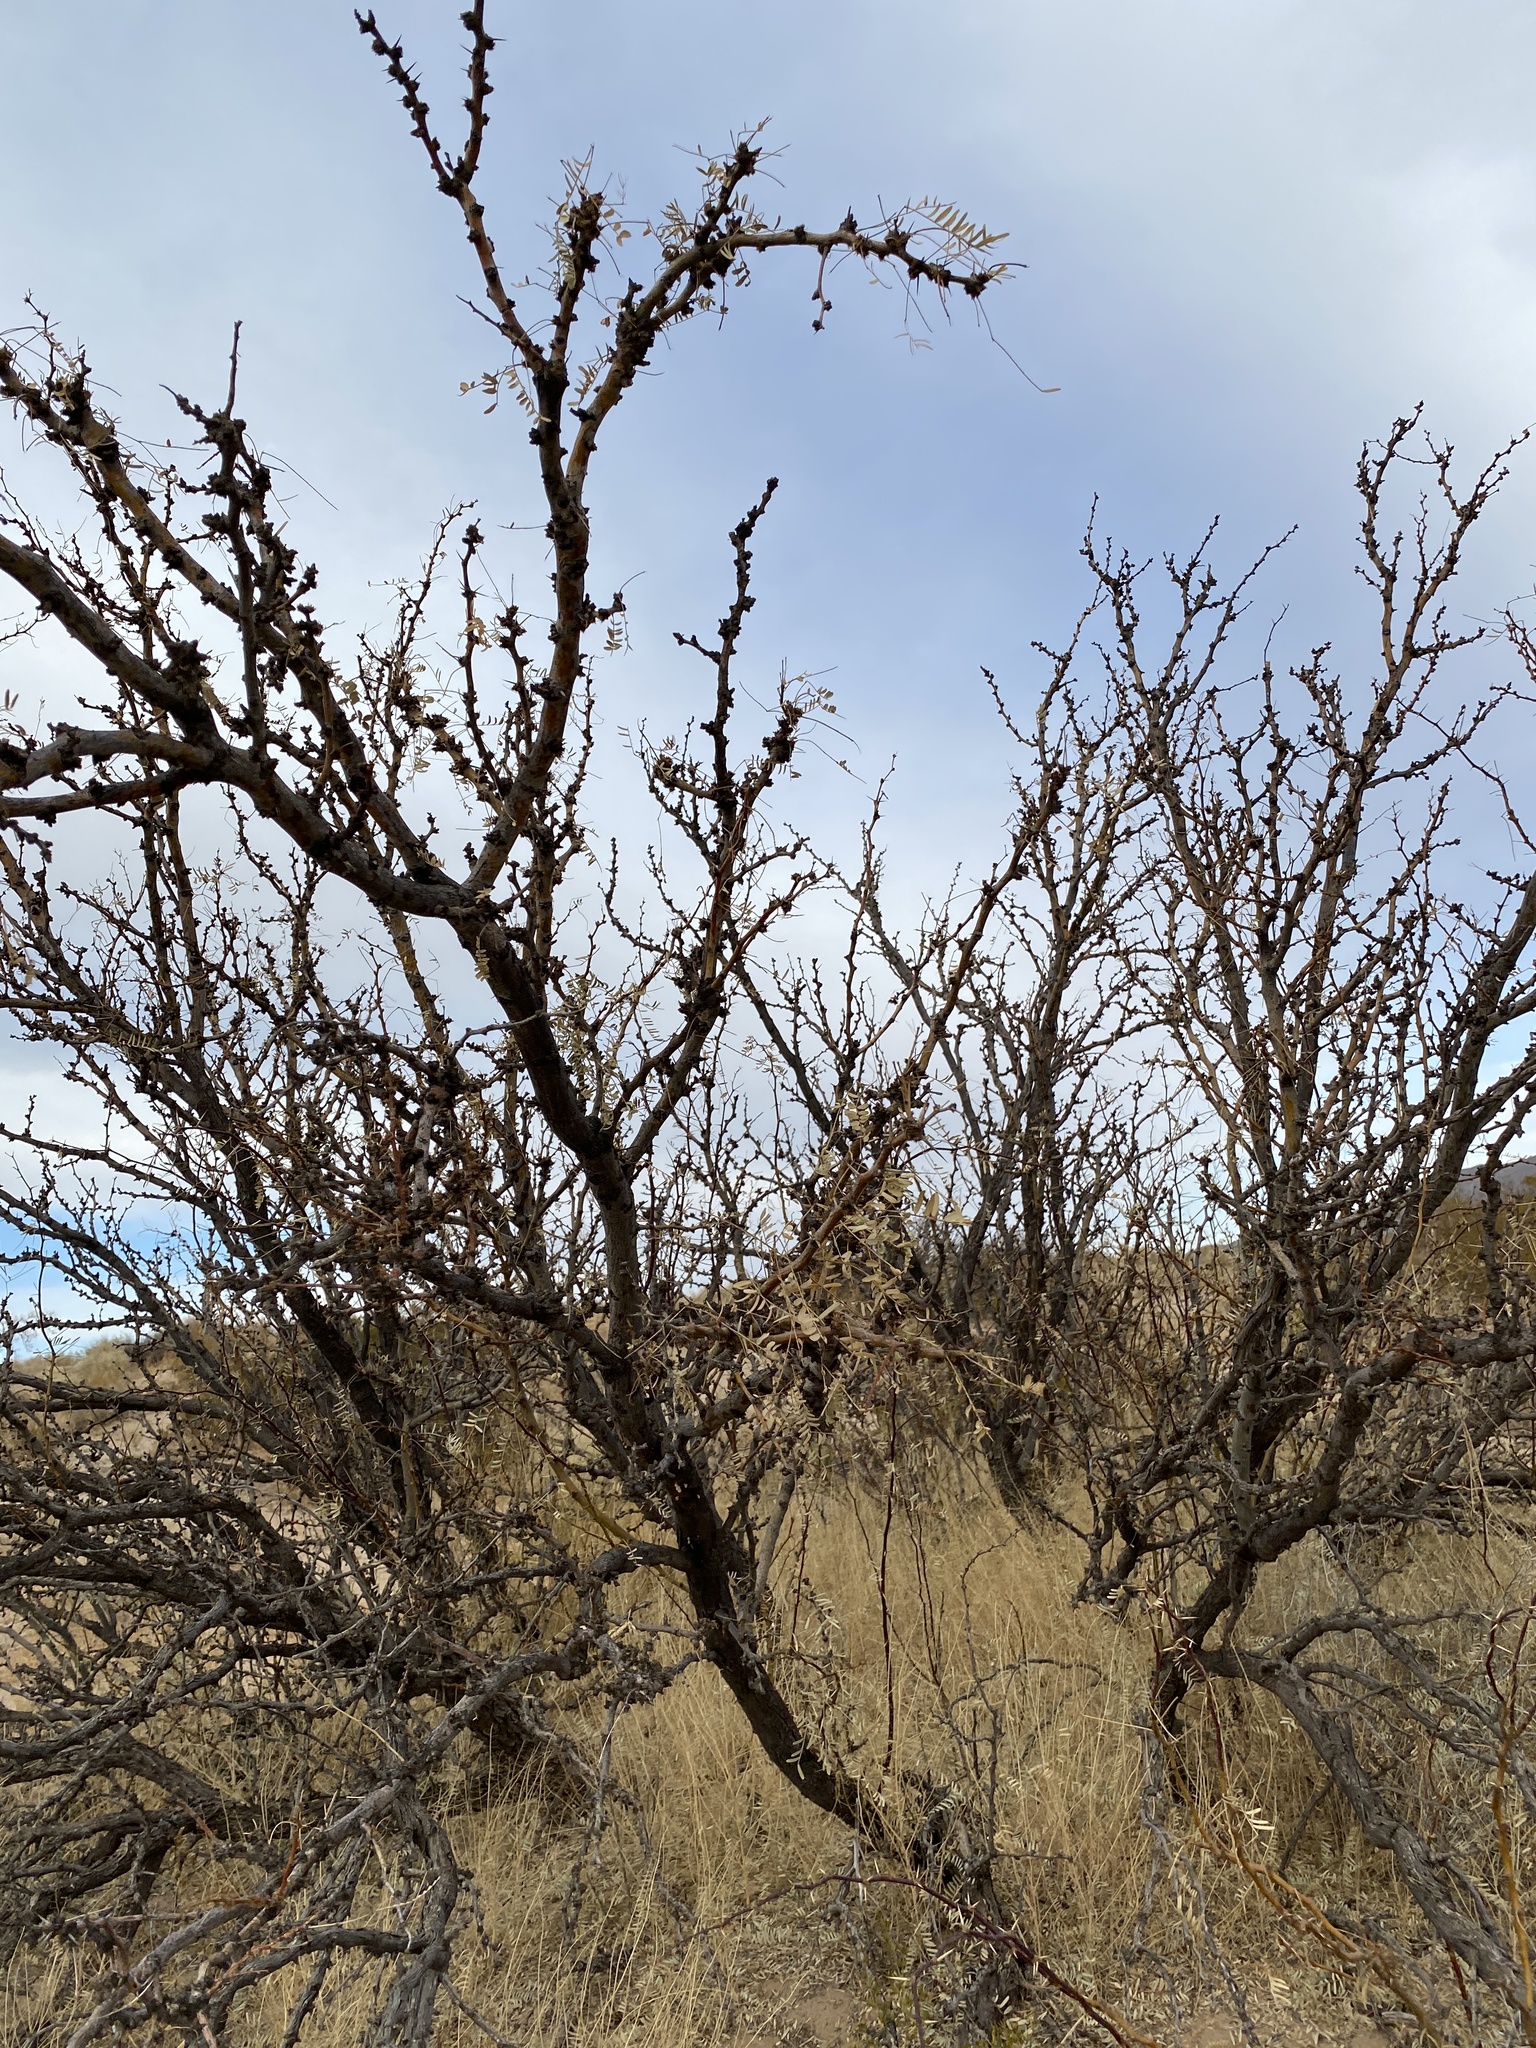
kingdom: Plantae
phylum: Tracheophyta
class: Magnoliopsida
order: Fabales
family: Fabaceae
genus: Prosopis
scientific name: Prosopis glandulosa
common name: Honey mesquite
